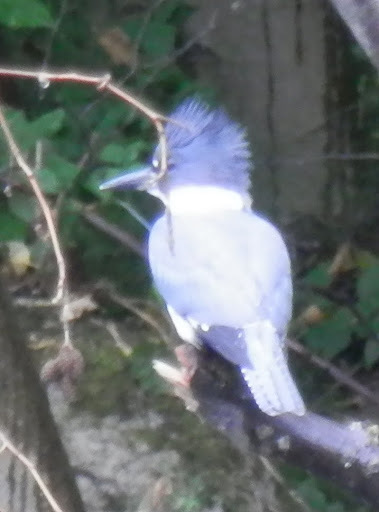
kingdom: Animalia
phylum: Chordata
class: Aves
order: Coraciiformes
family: Alcedinidae
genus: Megaceryle
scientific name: Megaceryle alcyon
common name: Belted kingfisher
